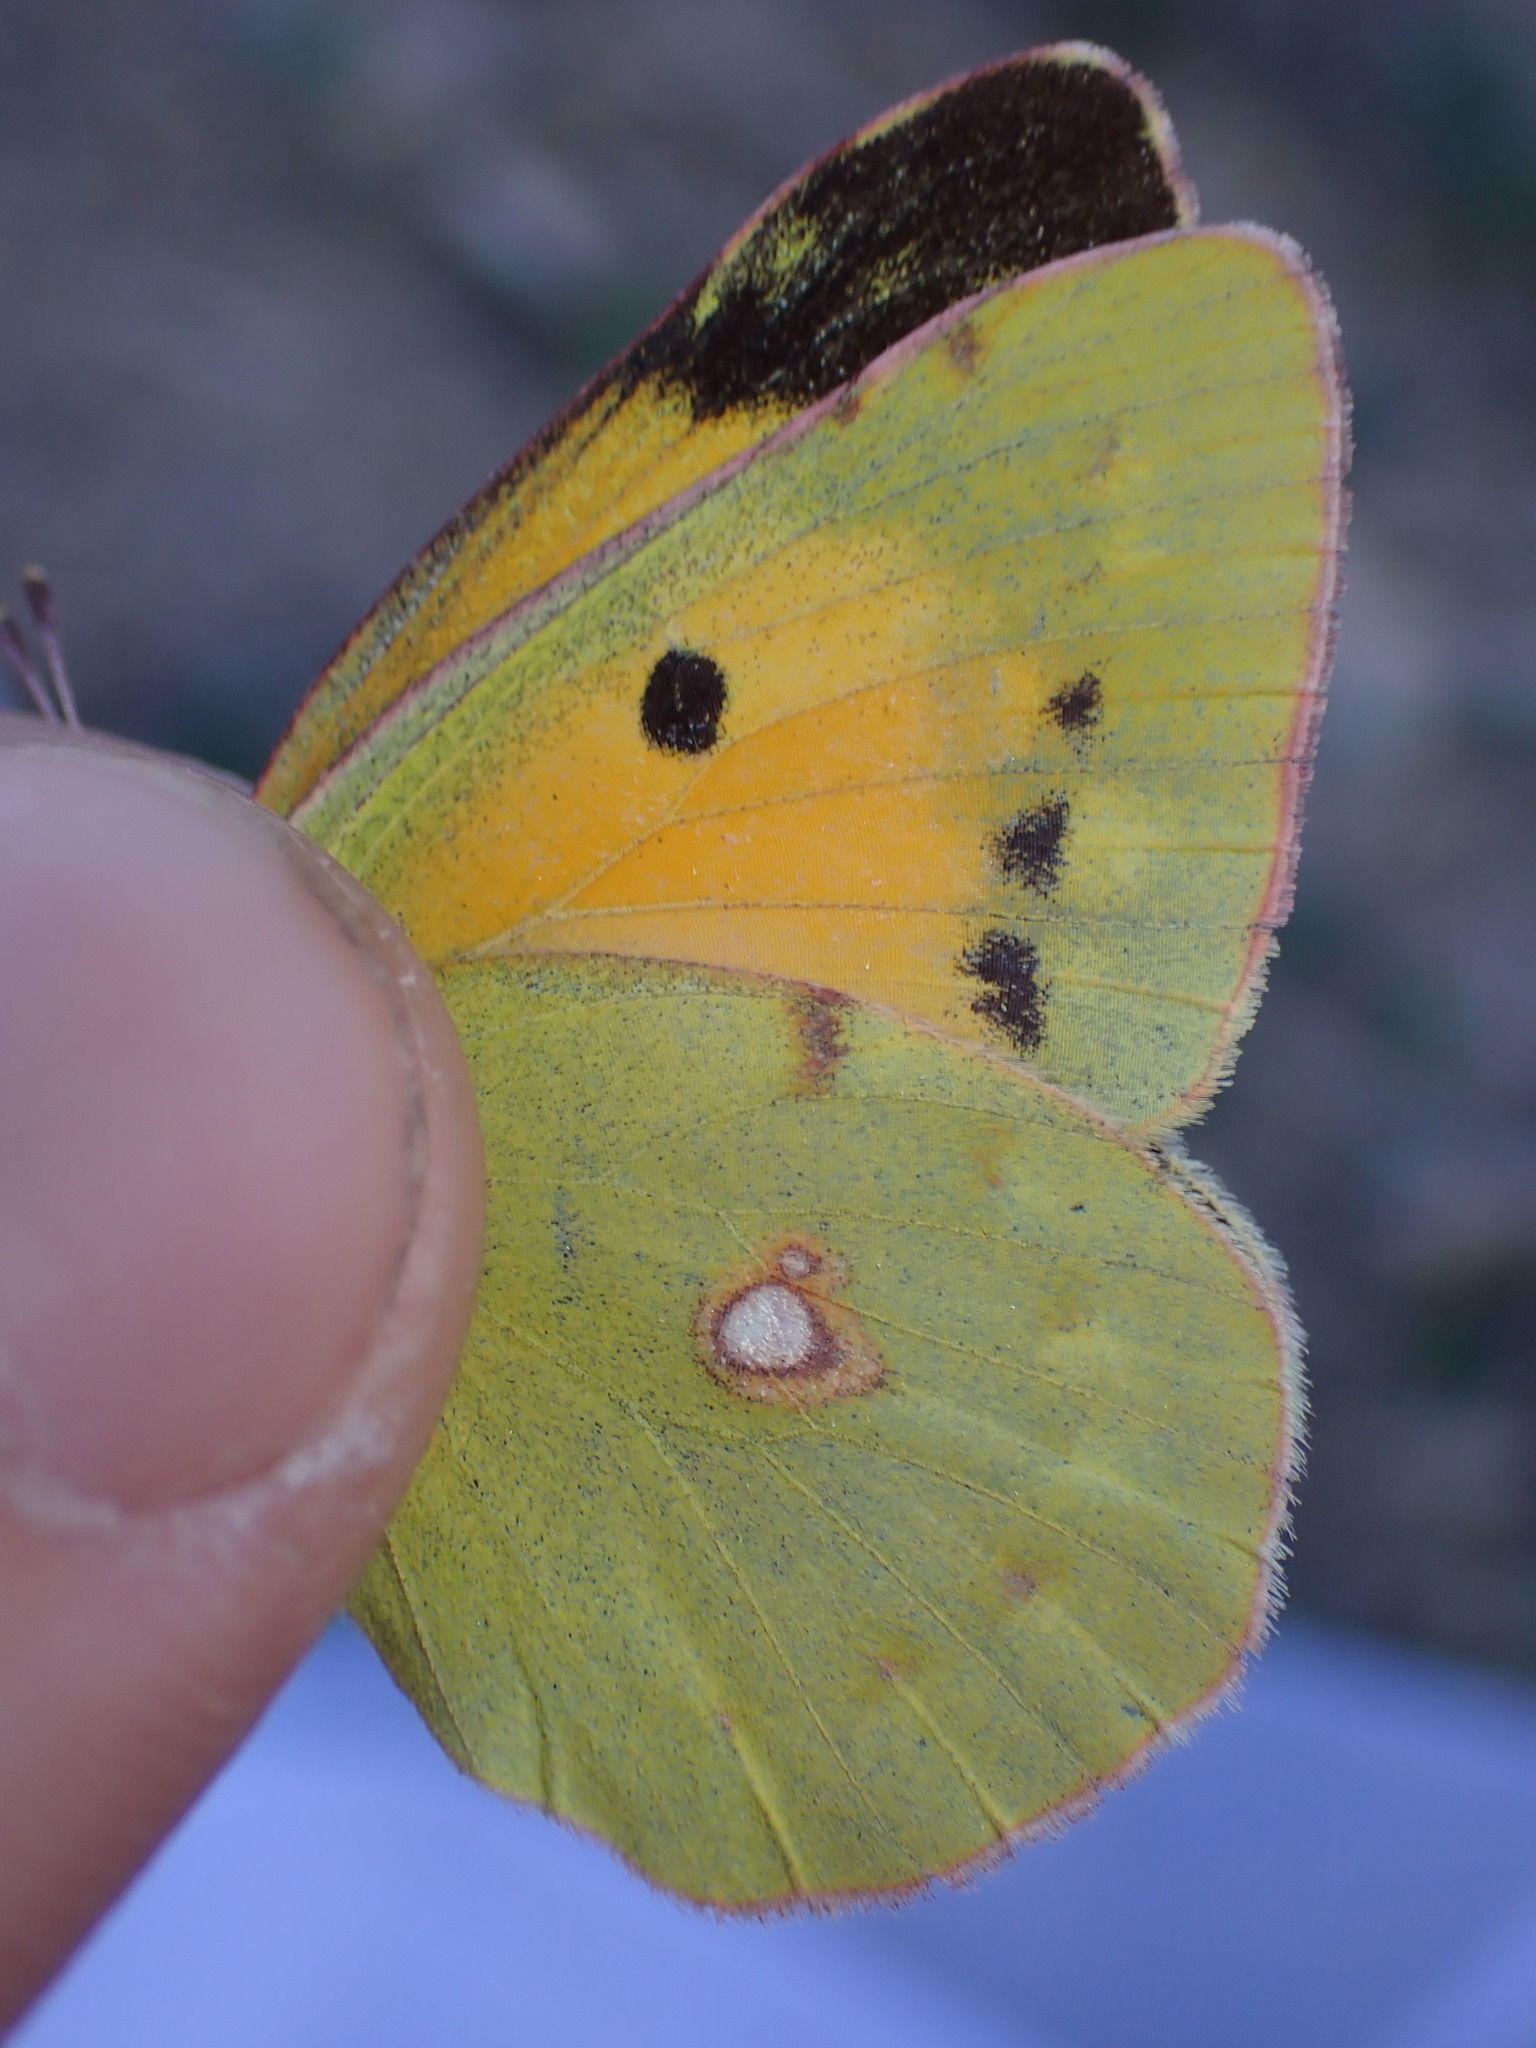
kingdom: Animalia
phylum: Arthropoda
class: Insecta
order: Lepidoptera
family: Pieridae
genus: Colias
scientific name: Colias croceus
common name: Clouded yellow
